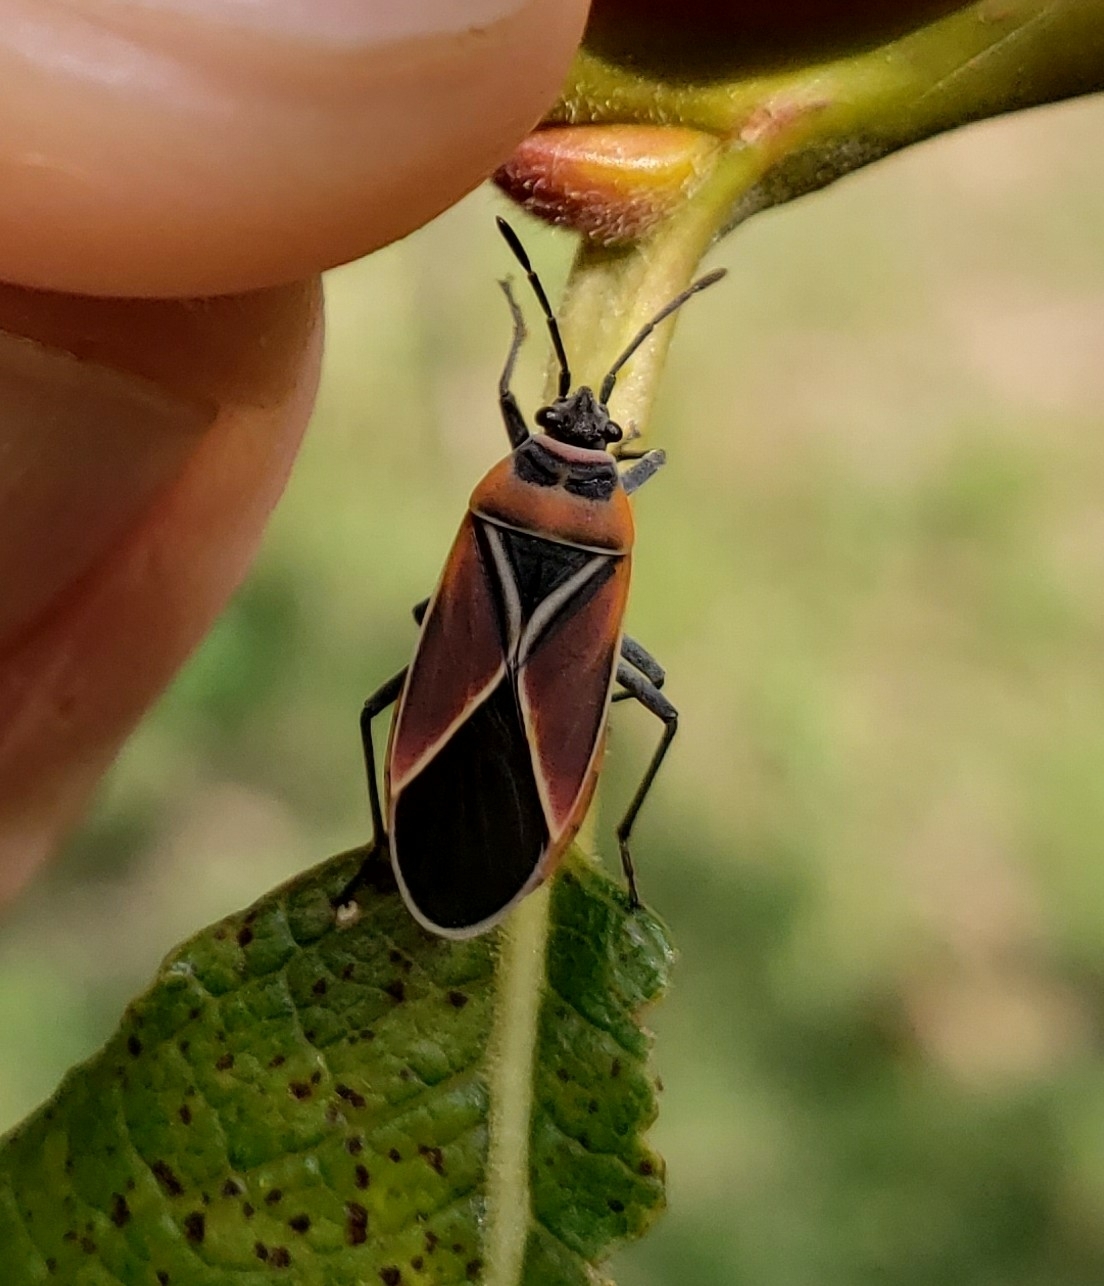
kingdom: Animalia
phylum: Arthropoda
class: Insecta
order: Hemiptera
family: Lygaeidae
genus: Neacoryphus
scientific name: Neacoryphus bicrucis
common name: Lygaeid bug
